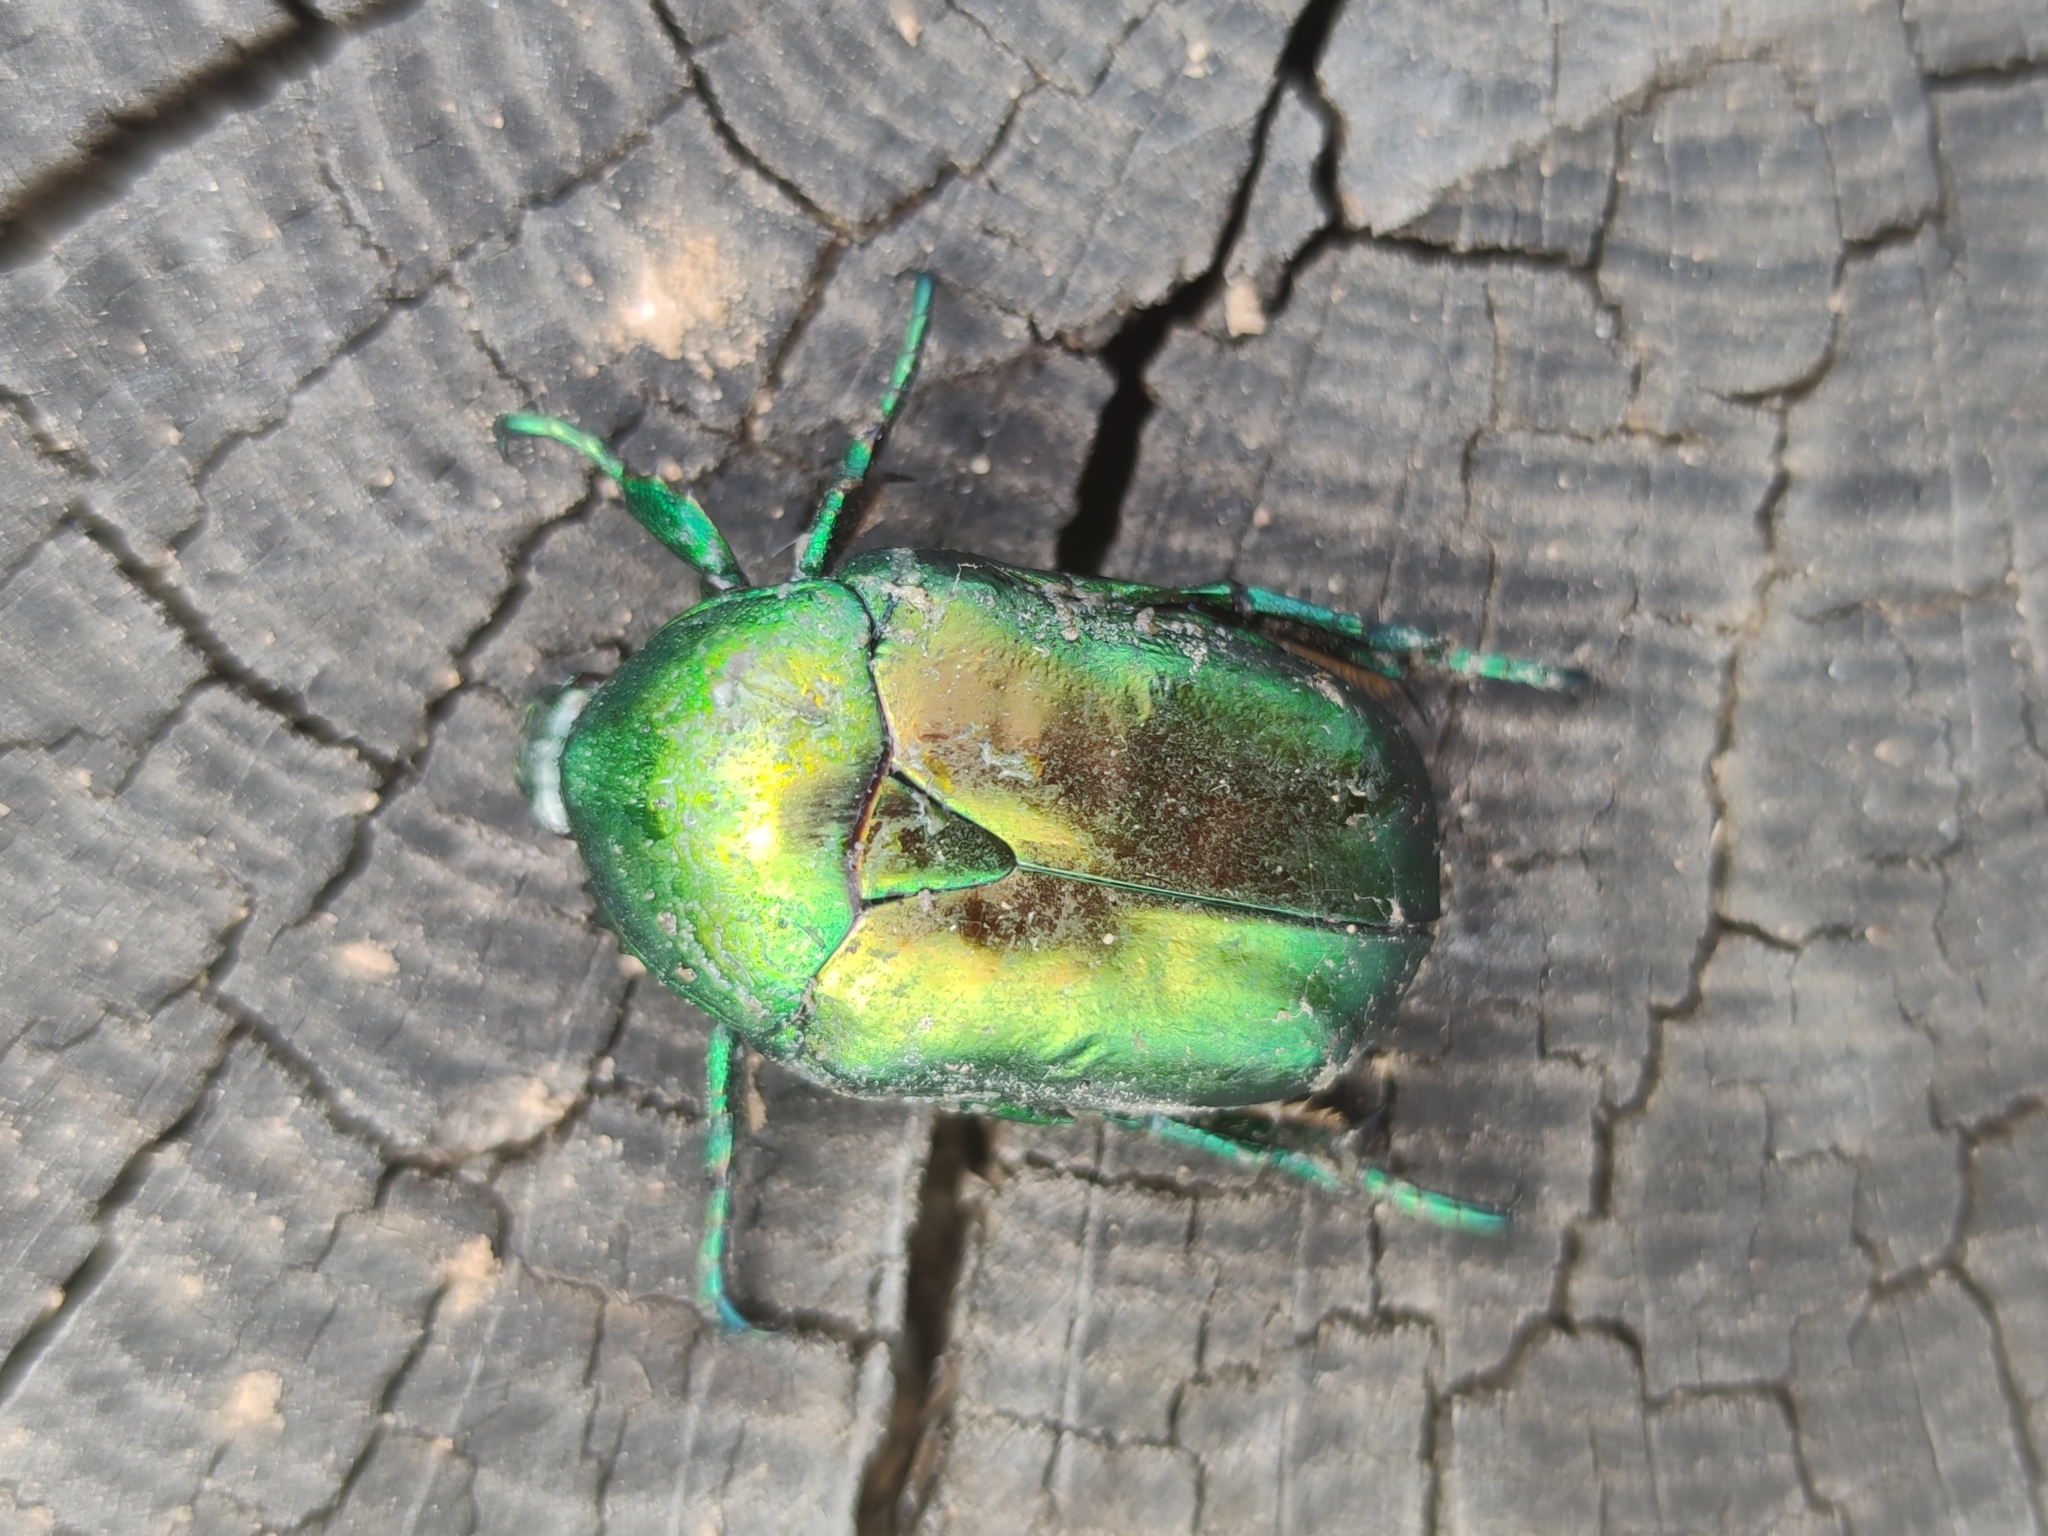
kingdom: Animalia
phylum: Arthropoda
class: Insecta
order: Coleoptera
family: Scarabaeidae
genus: Protaetia
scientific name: Protaetia speciosissima
